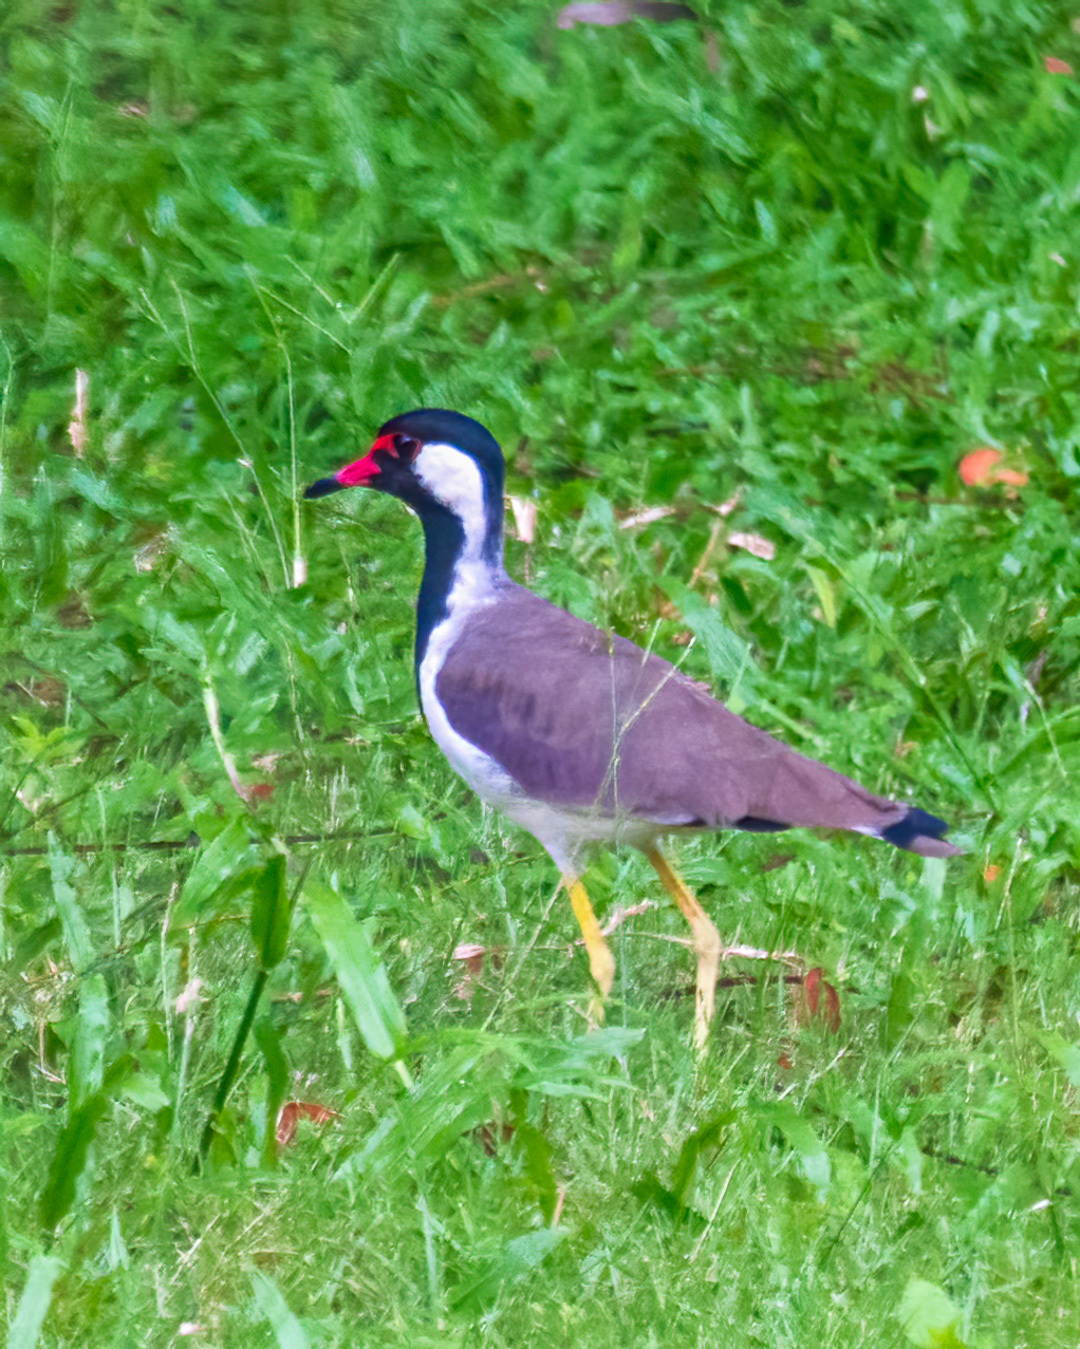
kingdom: Animalia
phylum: Chordata
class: Aves
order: Charadriiformes
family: Charadriidae
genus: Vanellus
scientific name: Vanellus indicus
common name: Red-wattled lapwing
